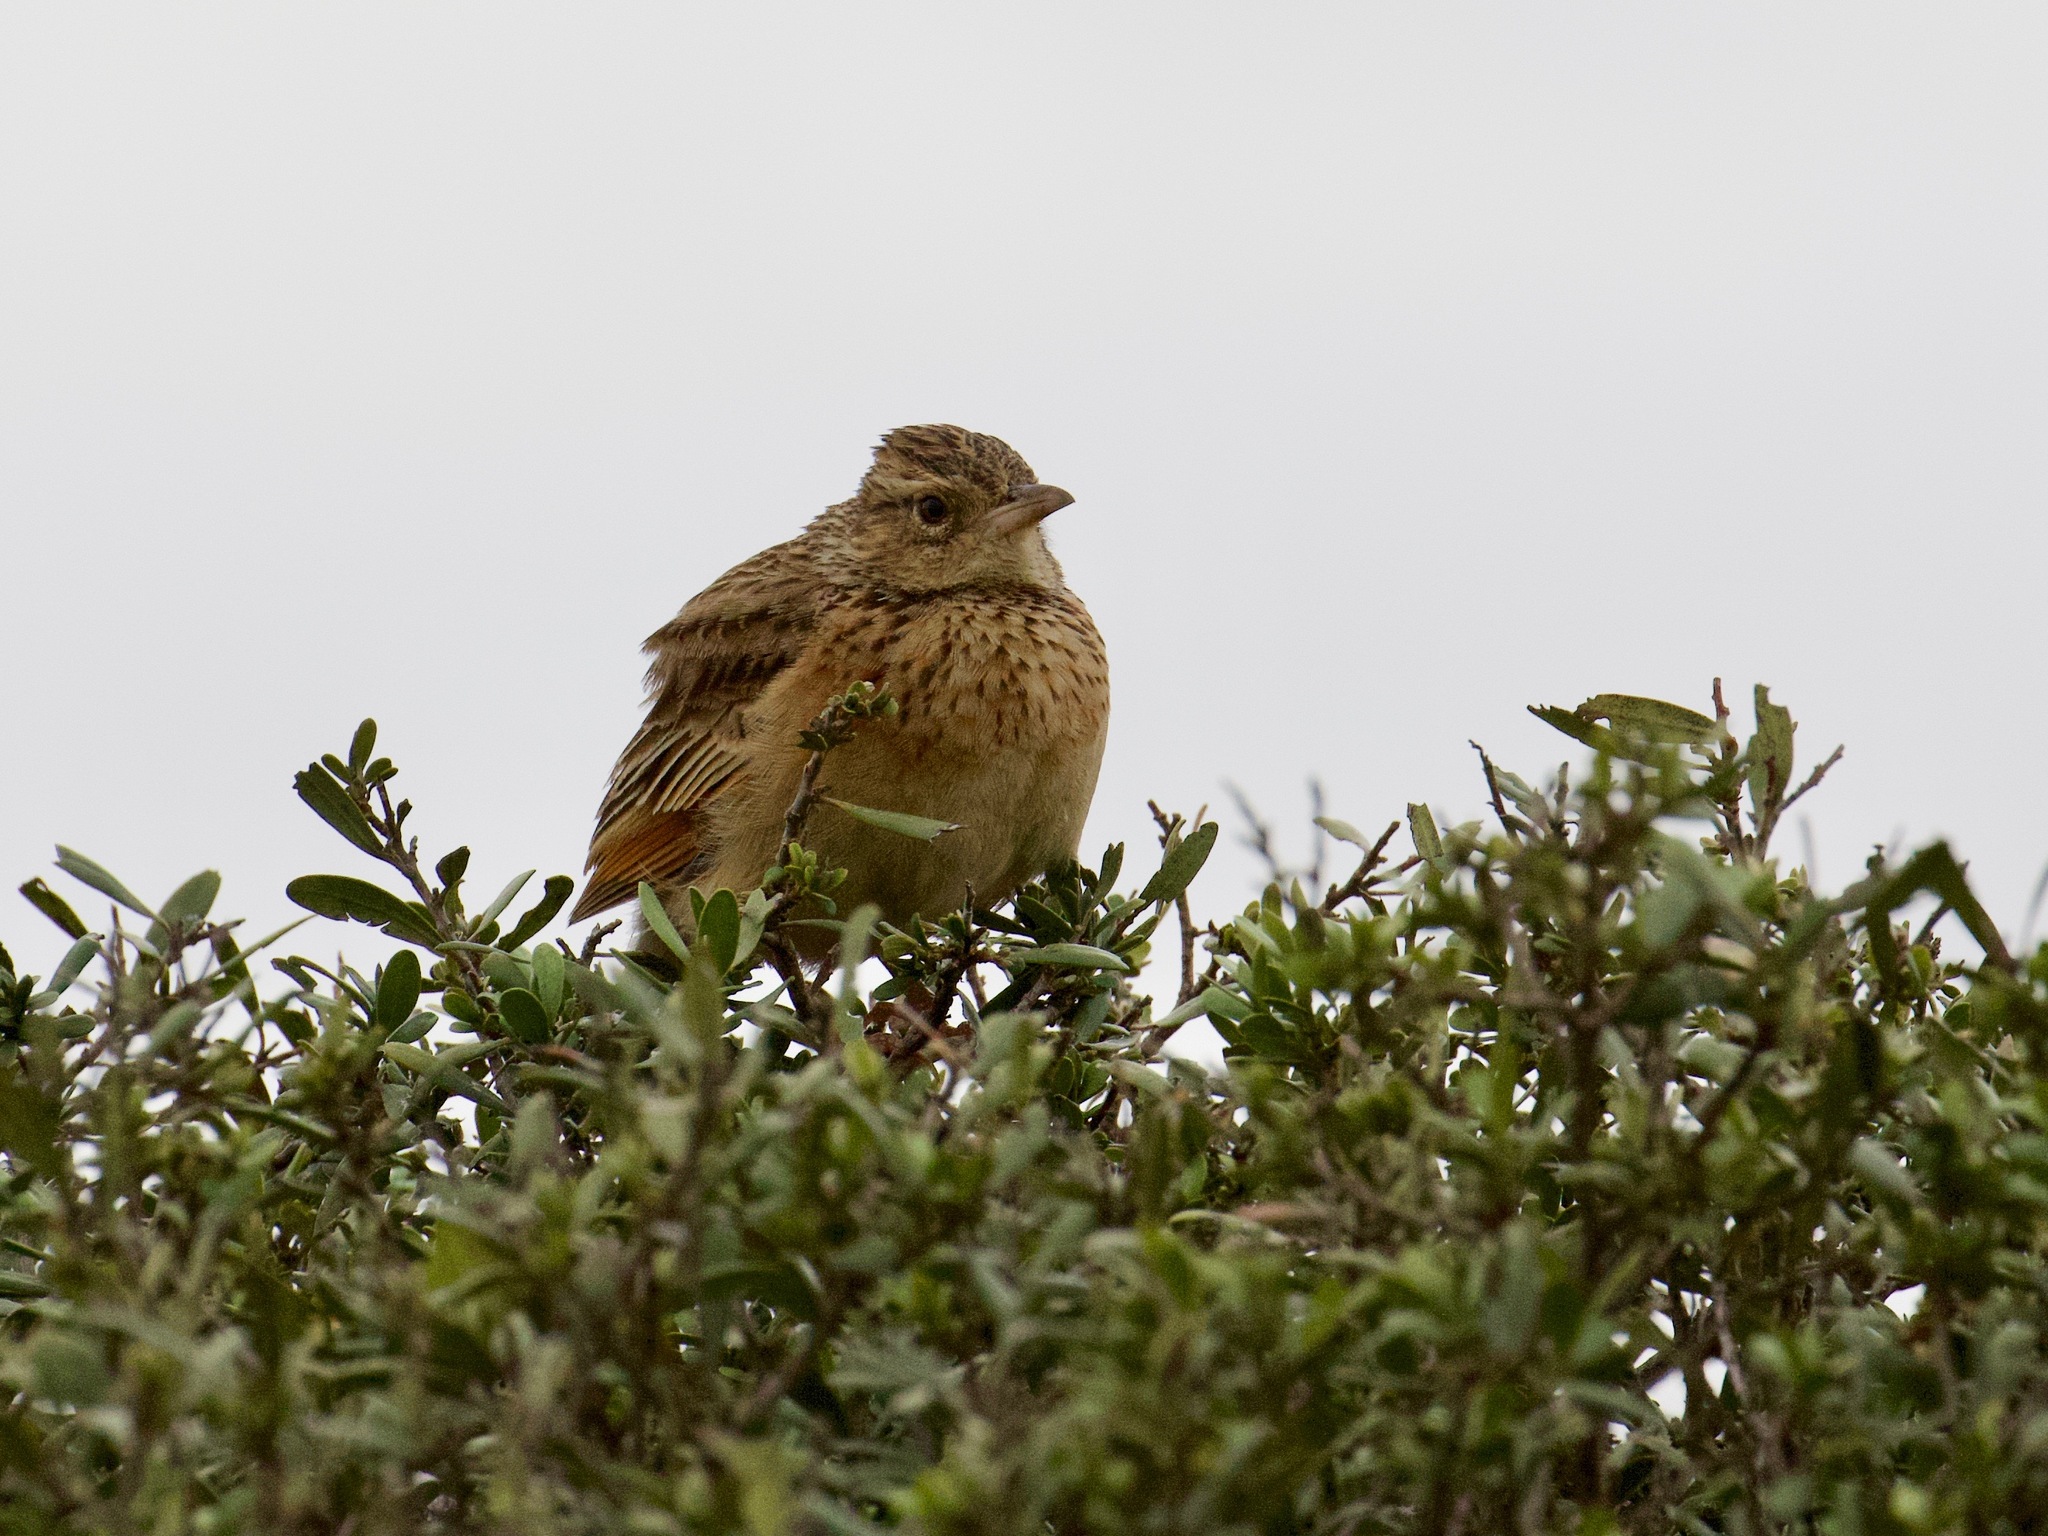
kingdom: Animalia
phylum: Chordata
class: Aves
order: Passeriformes
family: Alaudidae
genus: Mirafra
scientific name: Mirafra africana
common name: Rufous-naped lark
